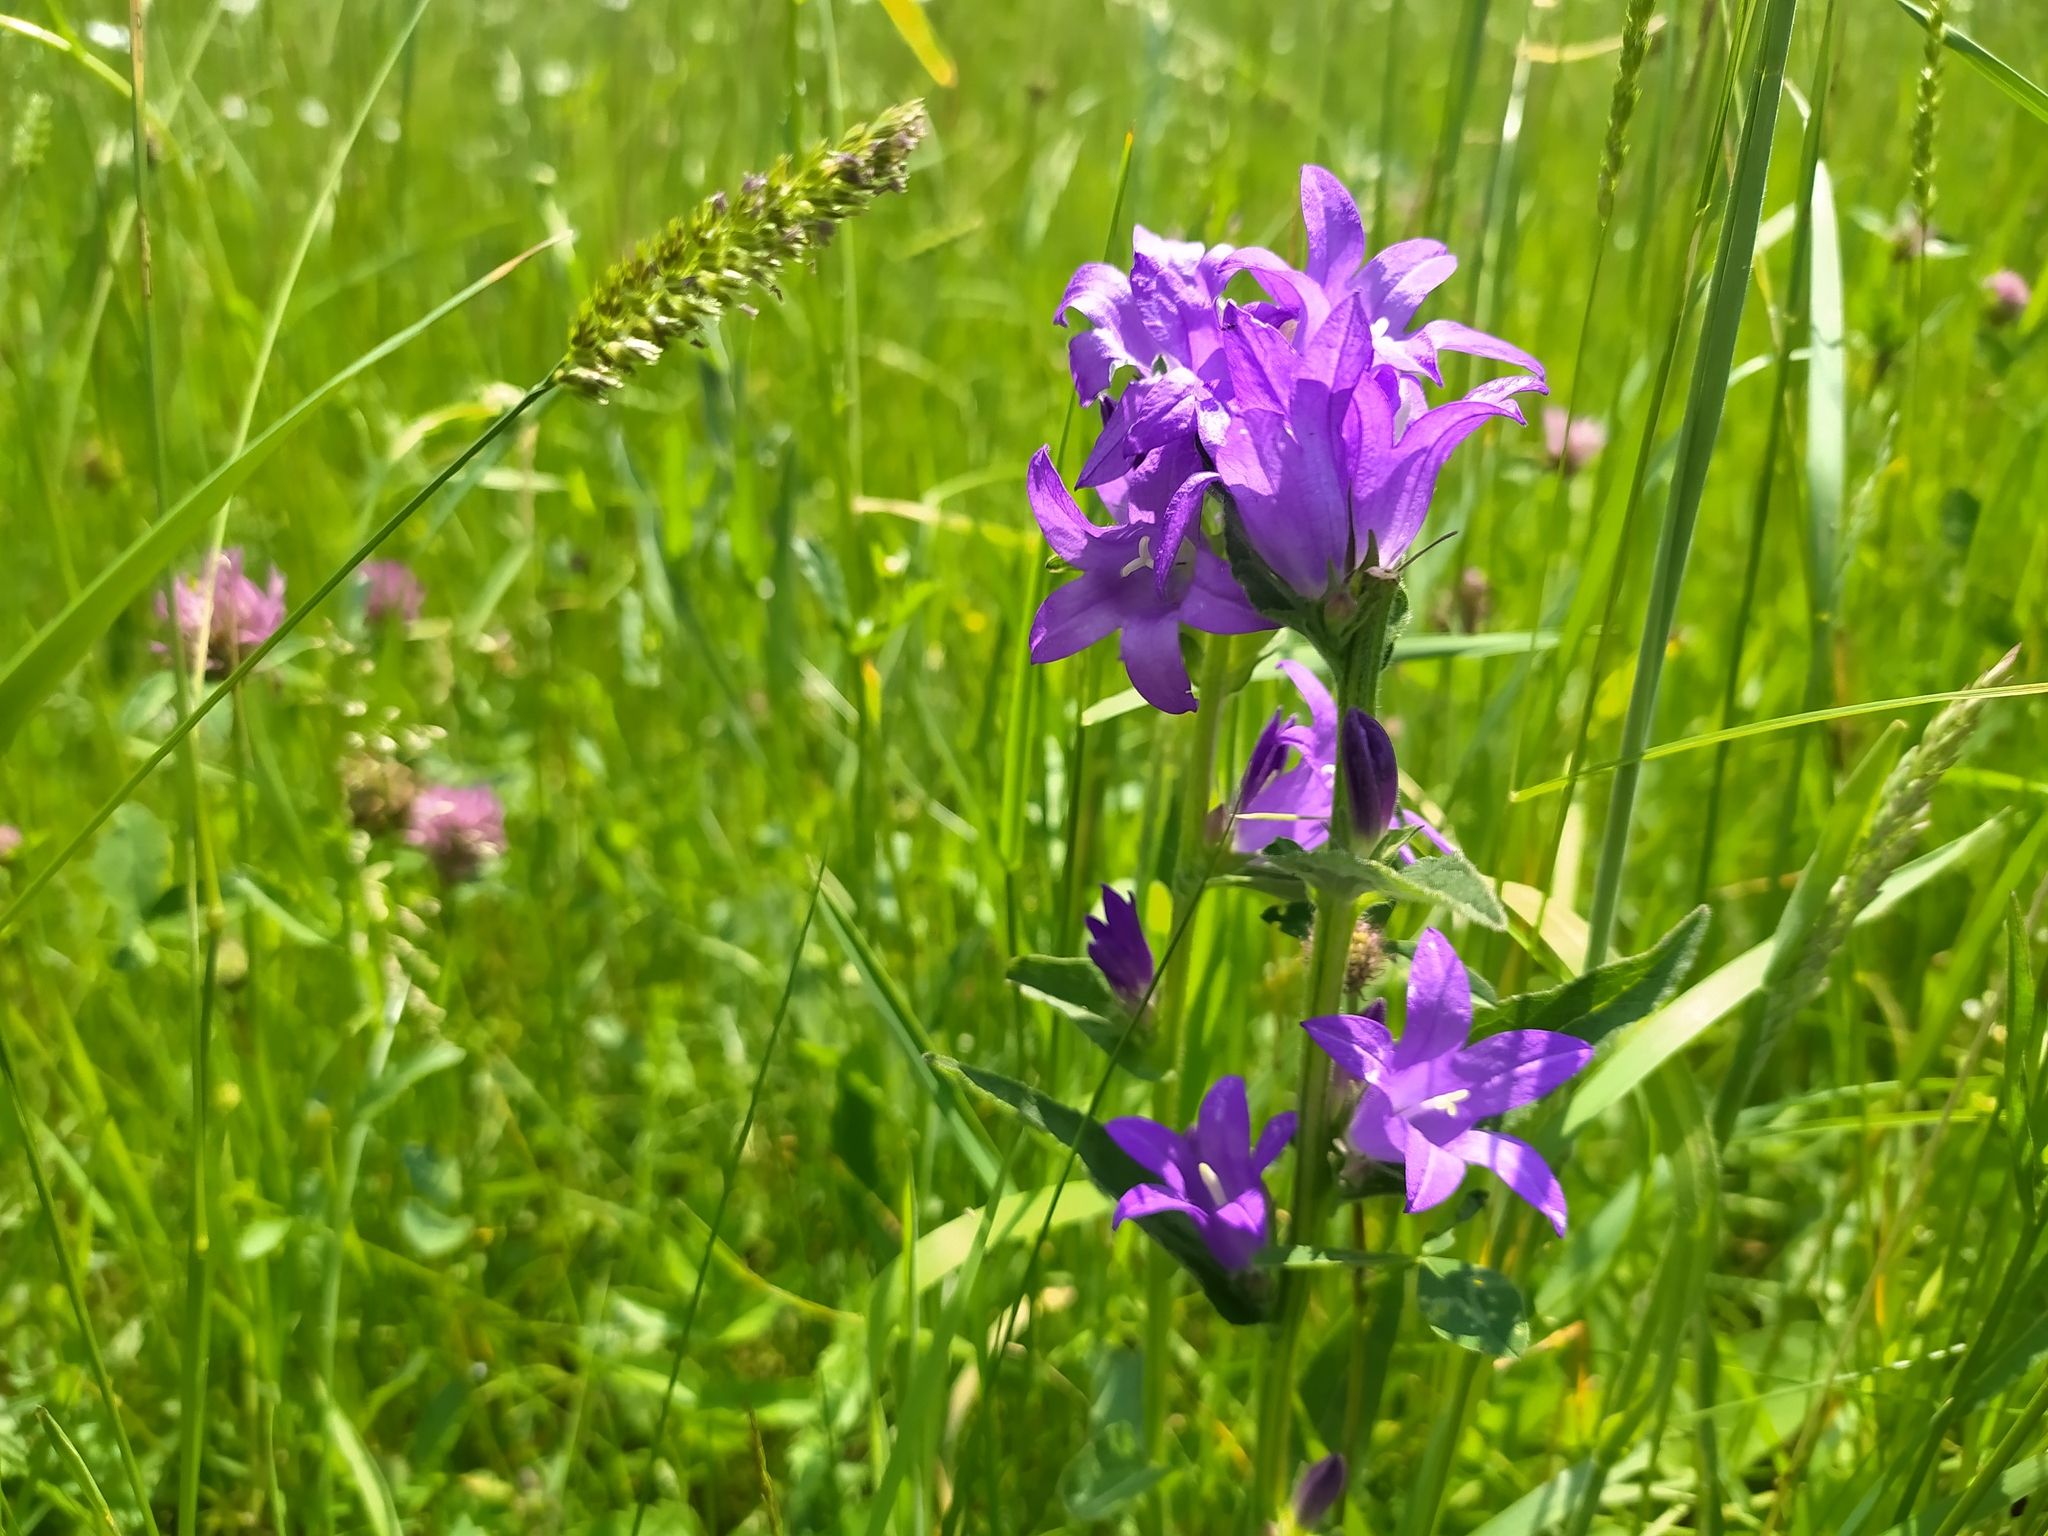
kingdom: Plantae
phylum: Tracheophyta
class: Magnoliopsida
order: Asterales
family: Campanulaceae
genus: Campanula
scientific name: Campanula glomerata
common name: Clustered bellflower
